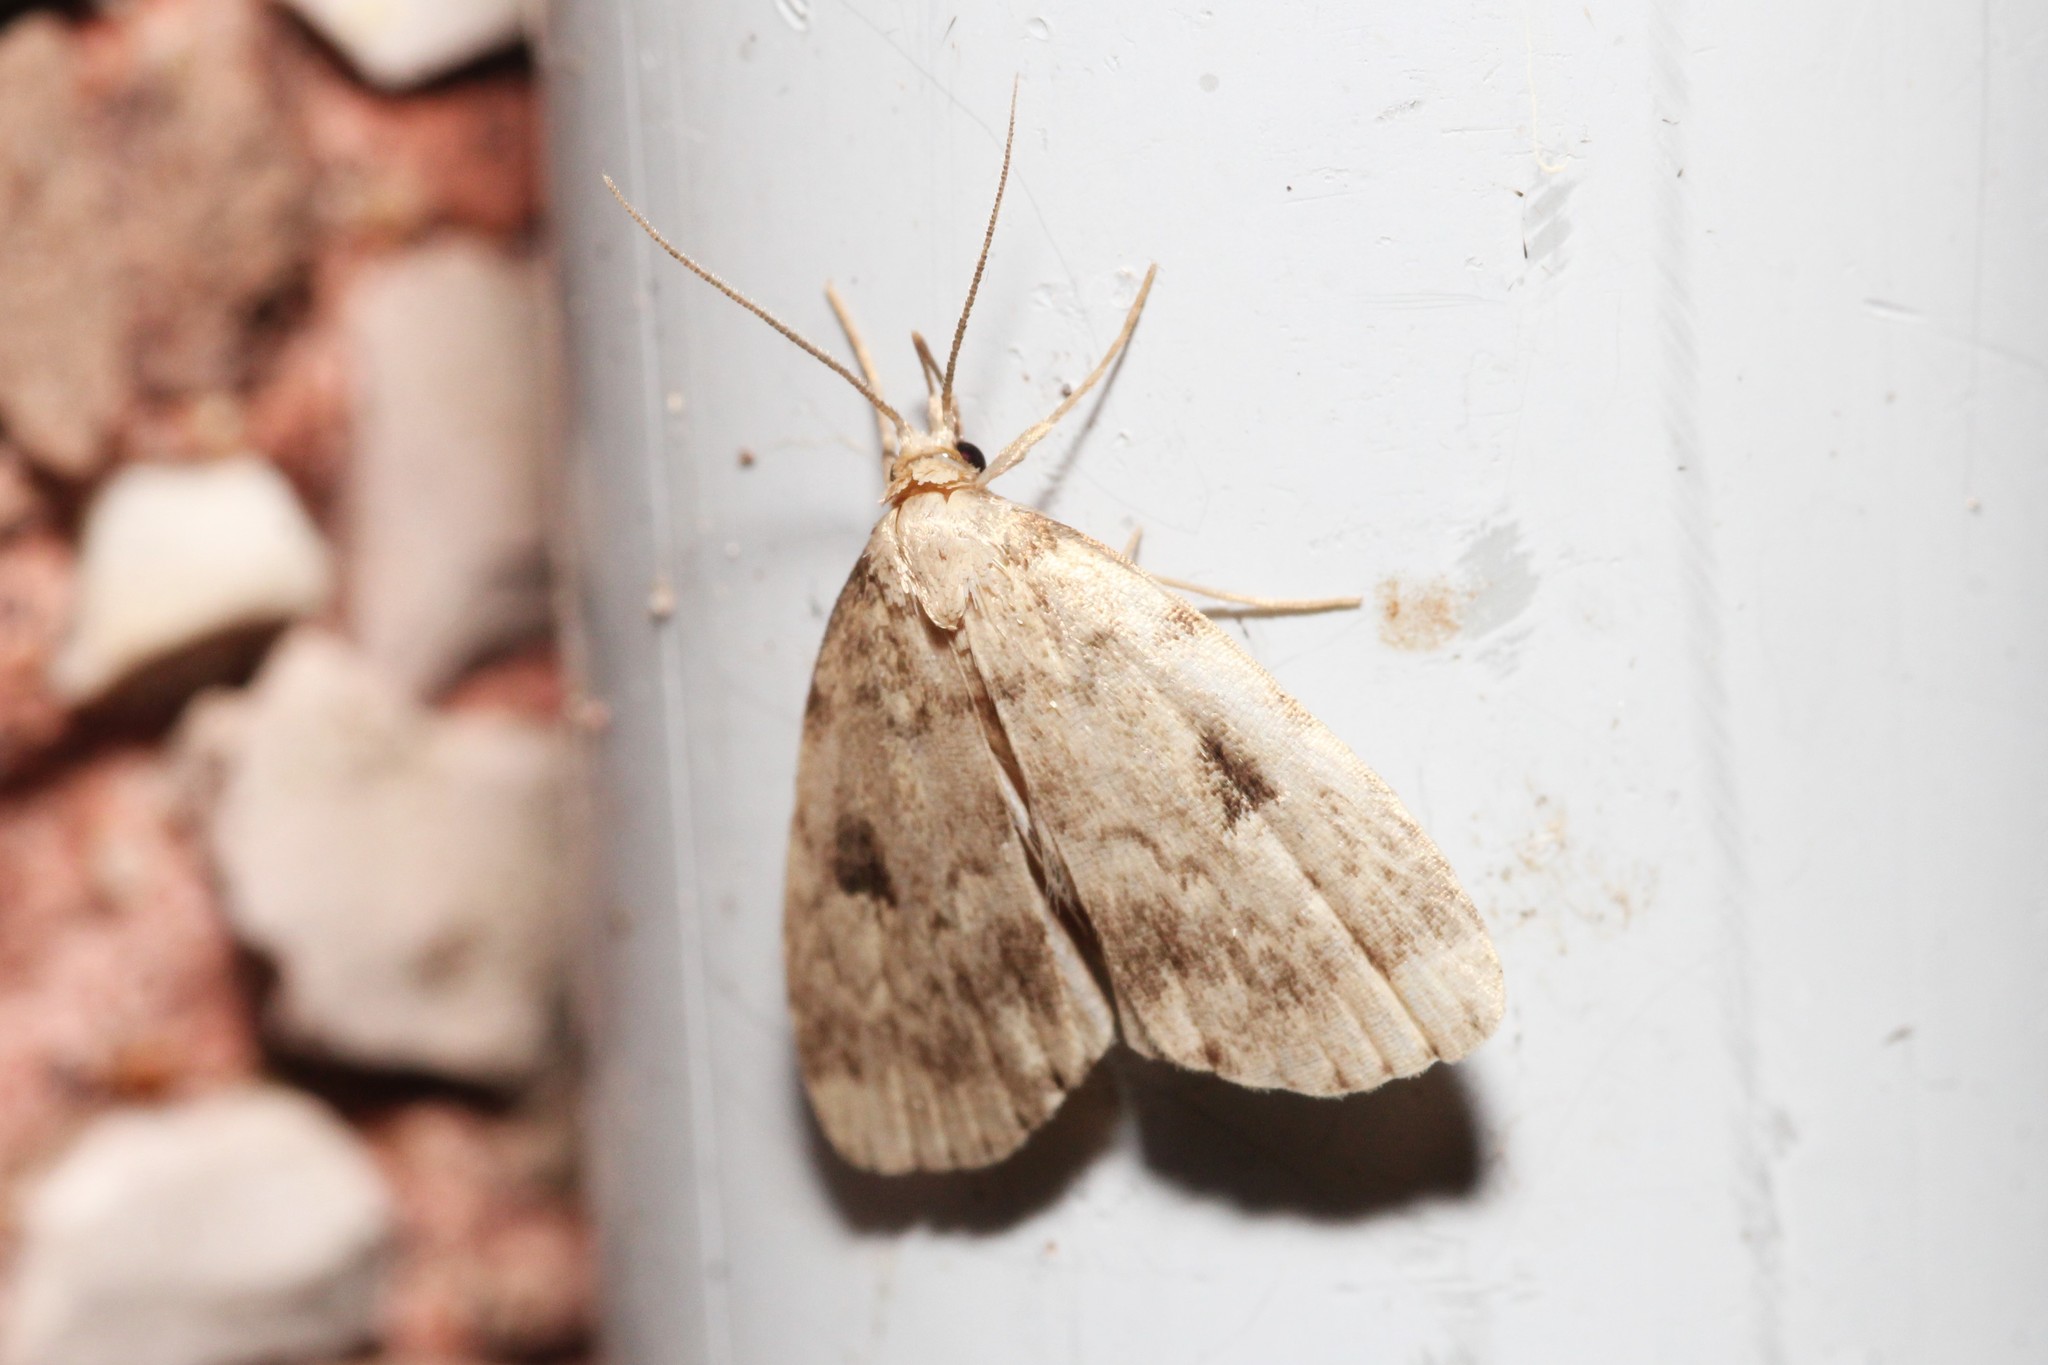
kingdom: Animalia
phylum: Arthropoda
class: Insecta
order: Lepidoptera
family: Erebidae
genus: Paradelta
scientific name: Paradelta Parahypenodes quadralis
